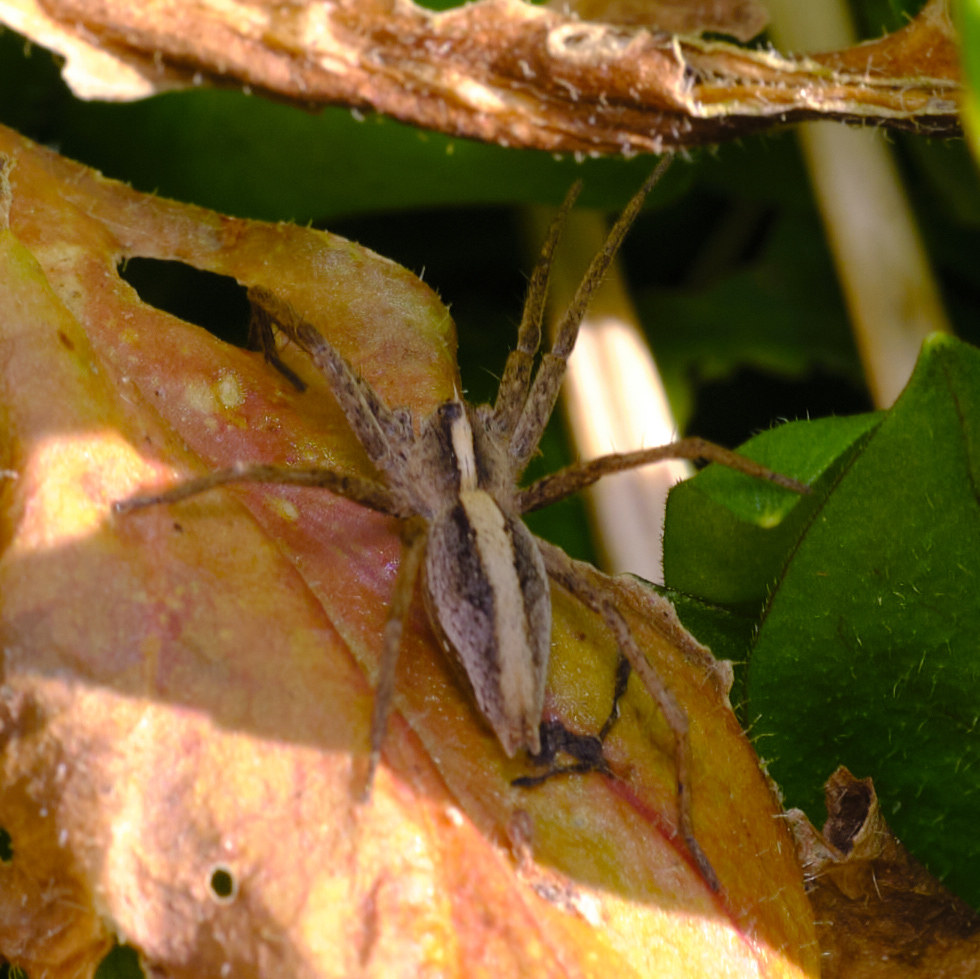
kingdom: Animalia
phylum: Arthropoda
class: Arachnida
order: Araneae
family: Pisauridae
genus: Pisaura
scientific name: Pisaura mirabilis
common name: Tent spider
